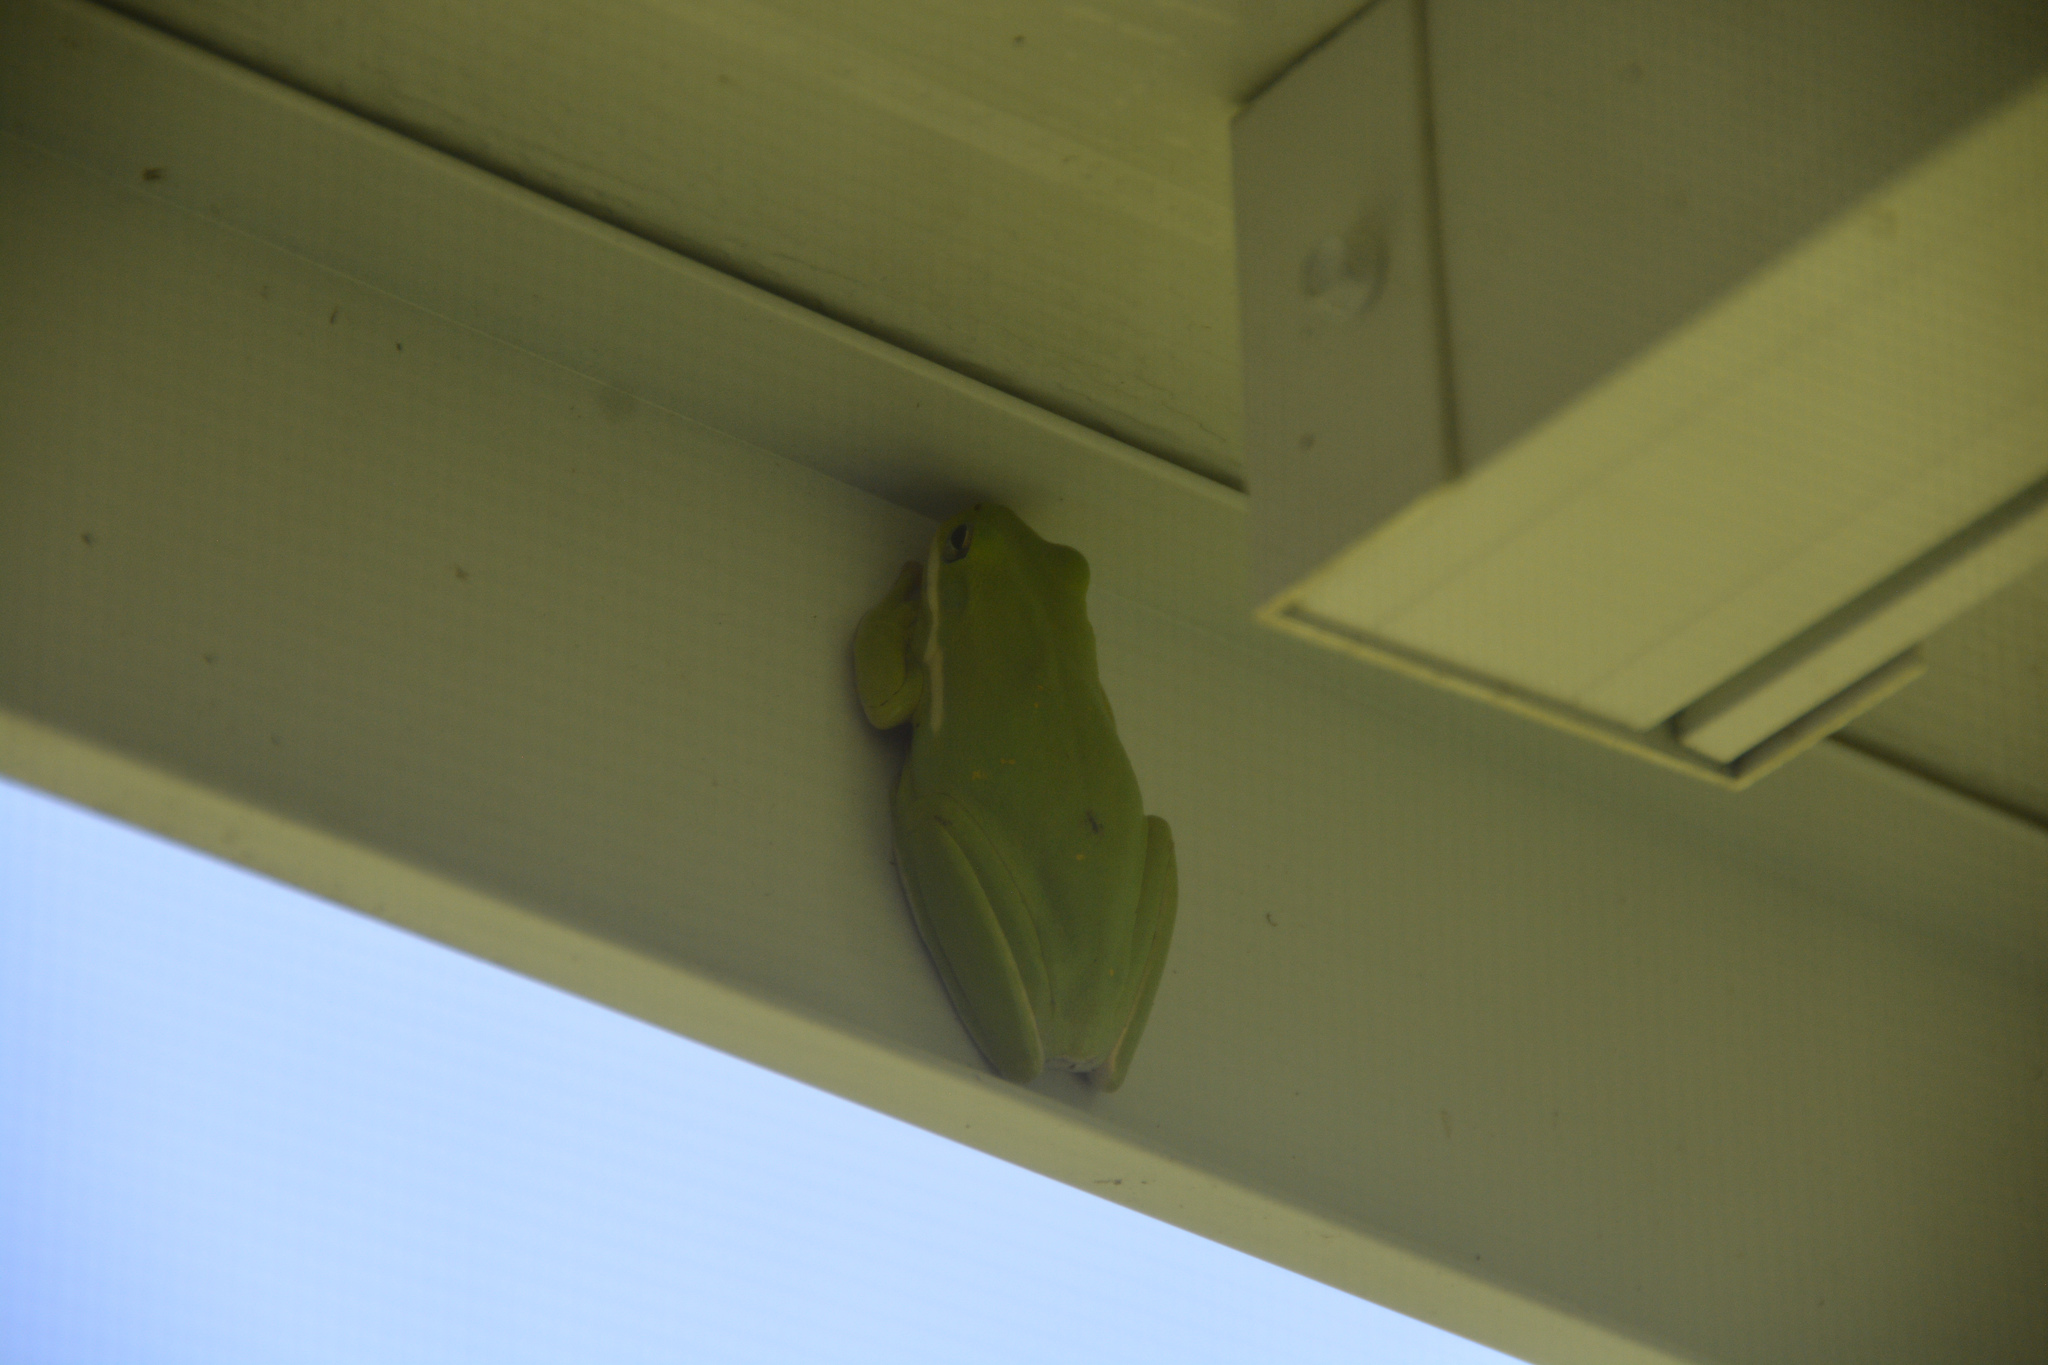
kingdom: Animalia
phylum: Chordata
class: Amphibia
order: Anura
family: Hylidae
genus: Dryophytes
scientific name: Dryophytes cinereus
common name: Green treefrog
